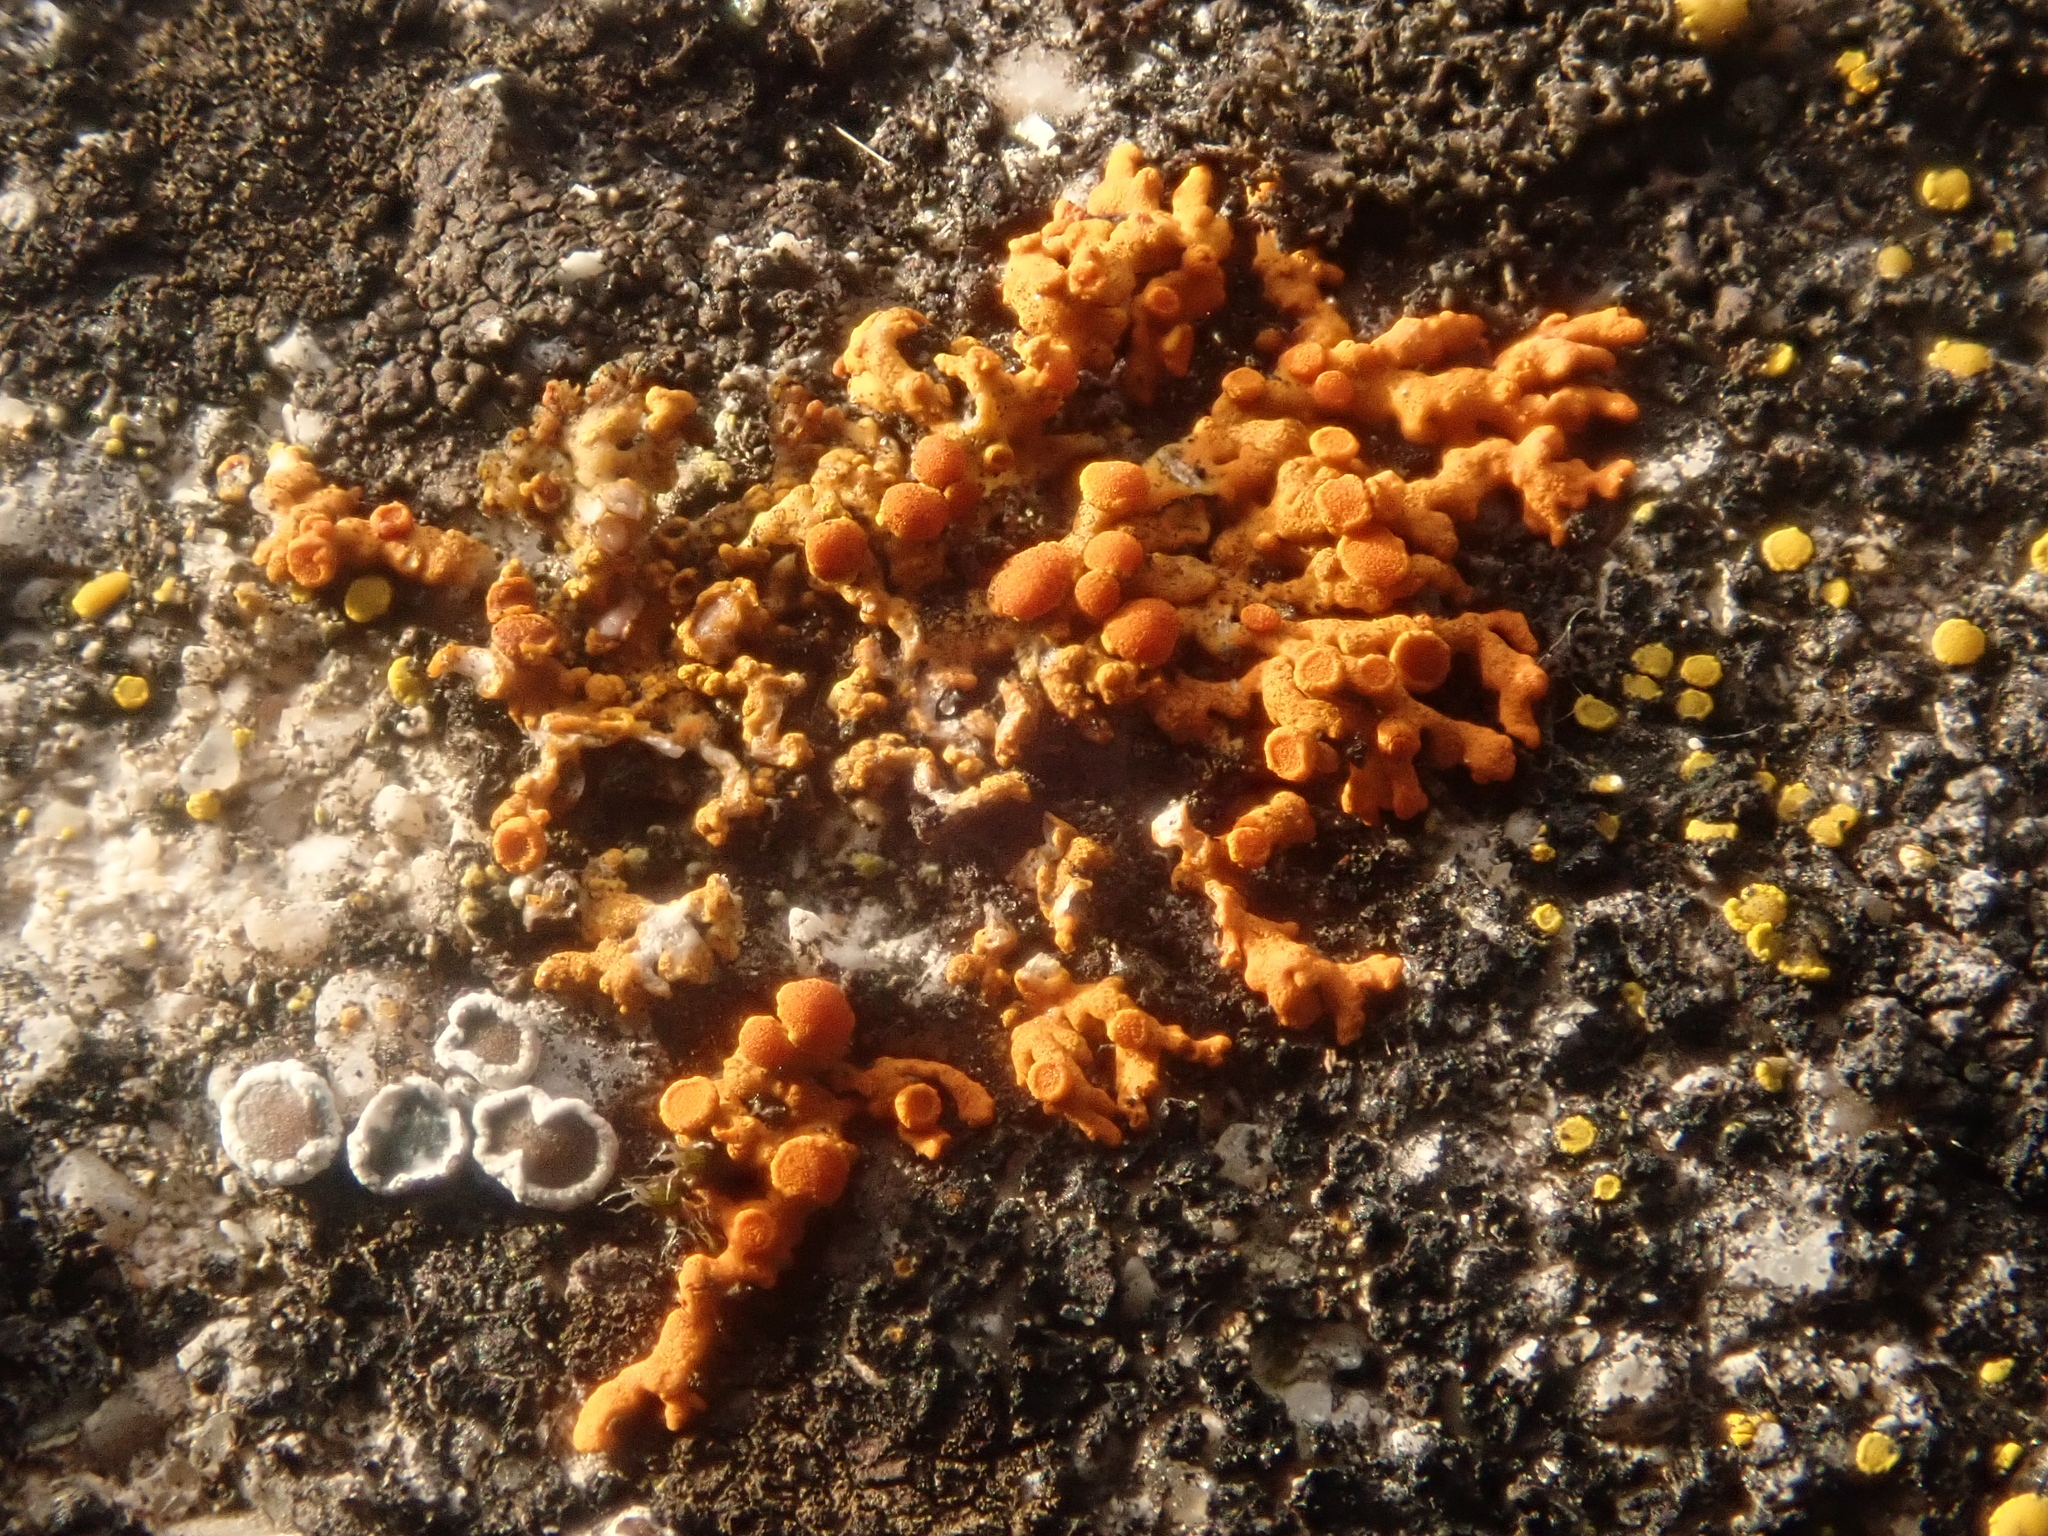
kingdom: Fungi
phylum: Ascomycota
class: Lecanoromycetes
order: Teloschistales
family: Teloschistaceae
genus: Xanthoria
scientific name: Xanthoria elegans
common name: Elegant sunburst lichen
